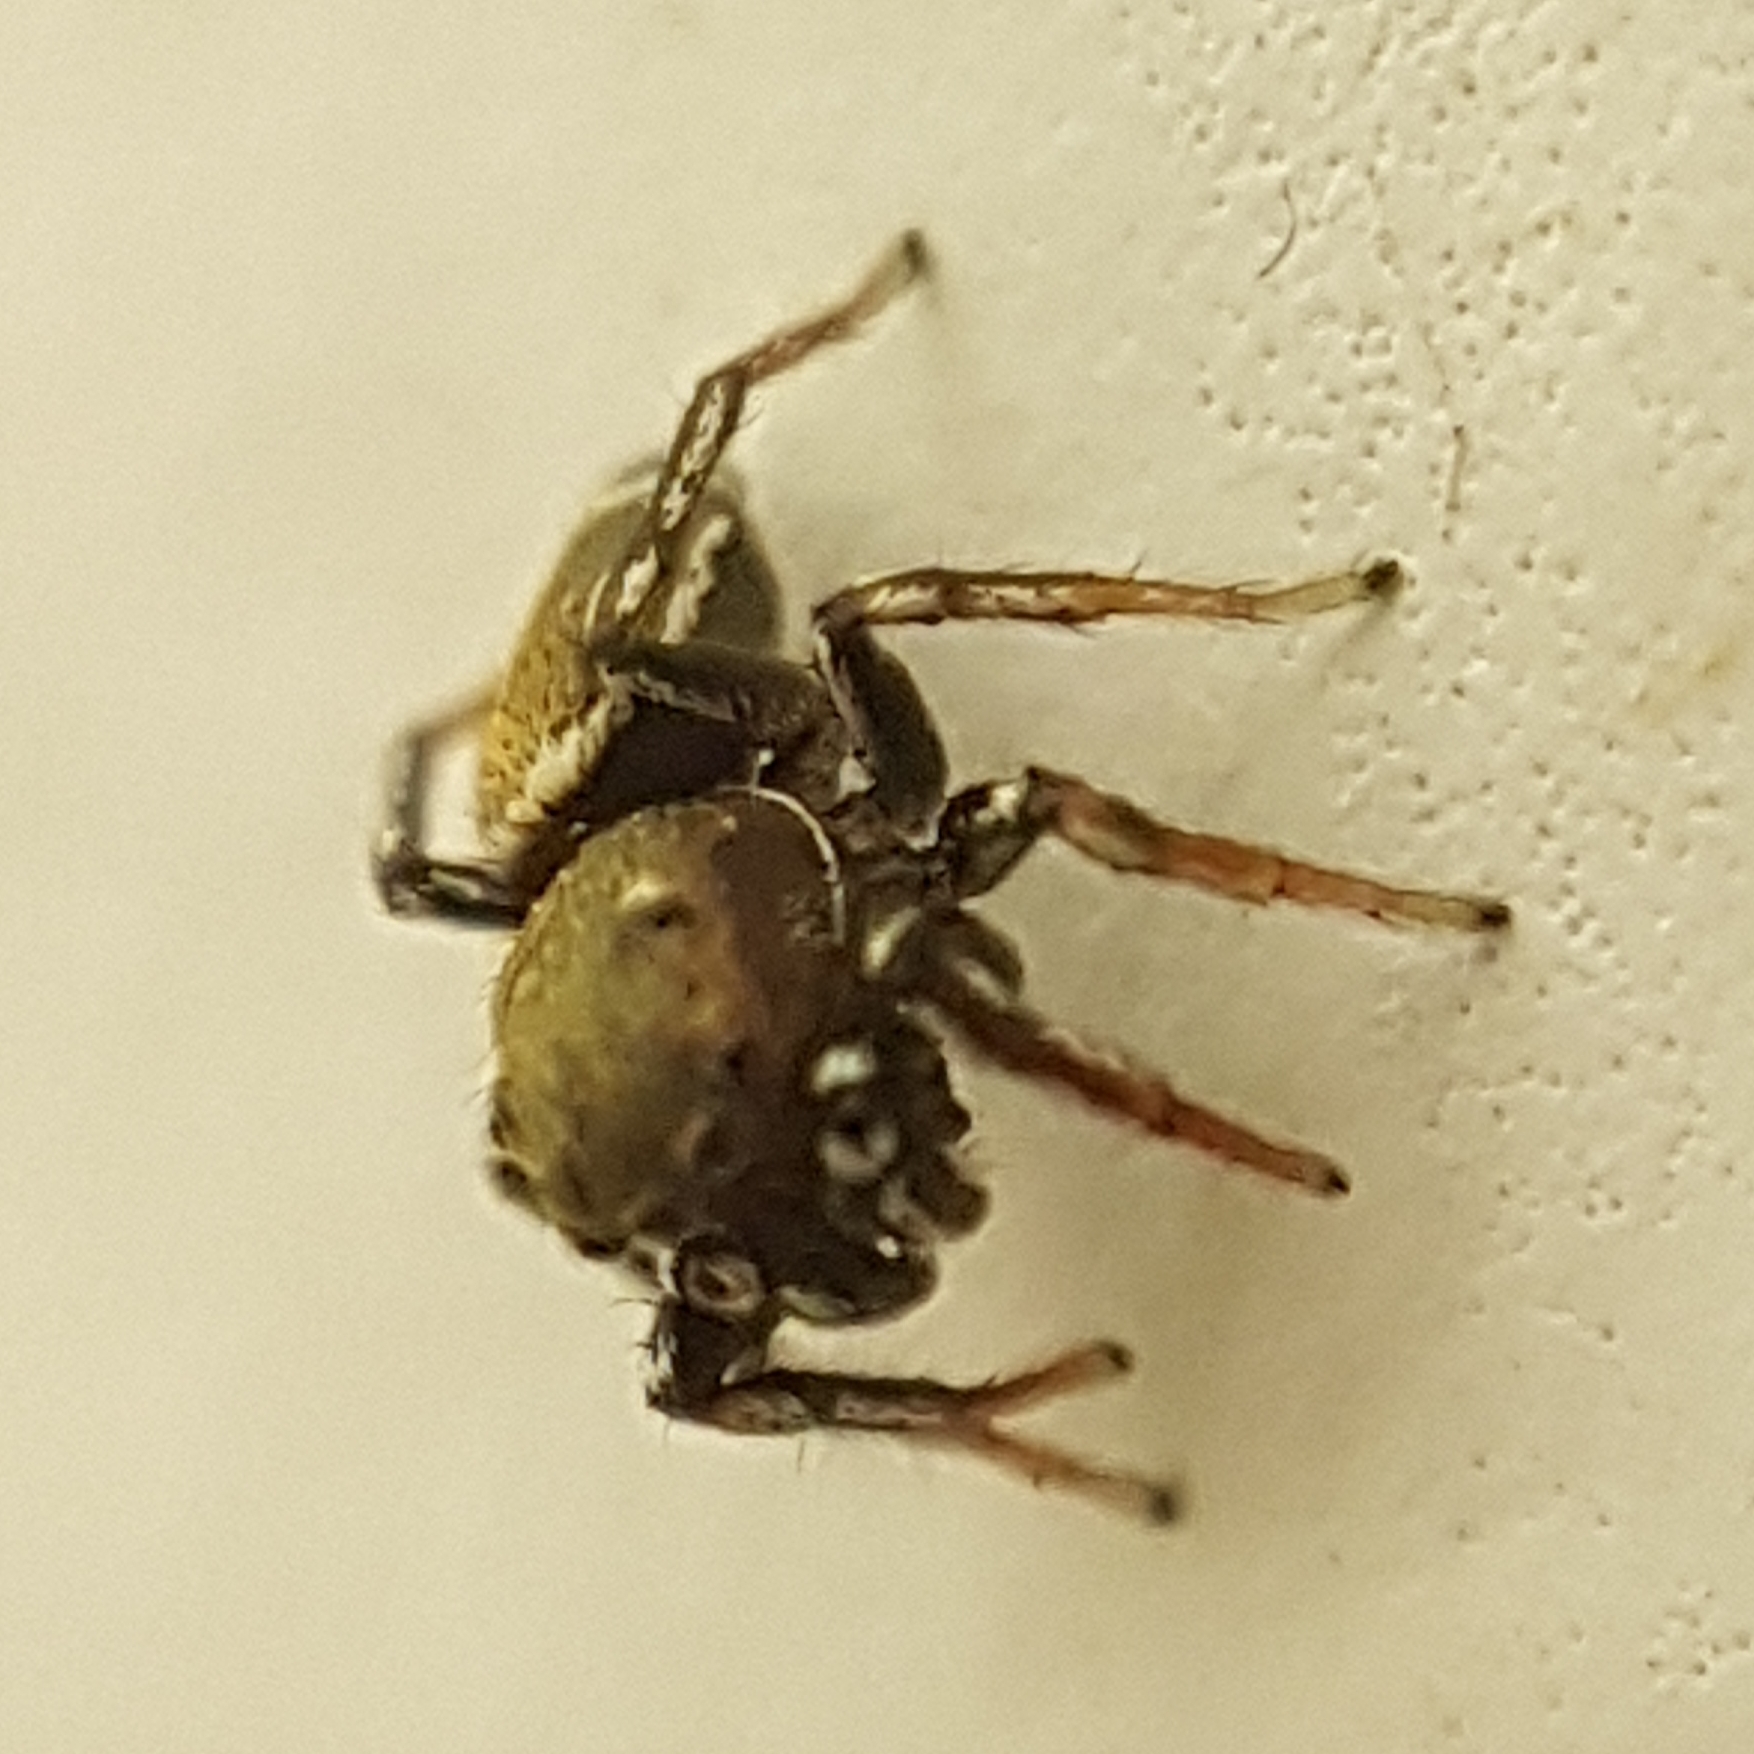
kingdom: Animalia
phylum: Arthropoda
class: Arachnida
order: Araneae
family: Salticidae
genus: Heliophanus
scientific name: Heliophanus tribulosus
